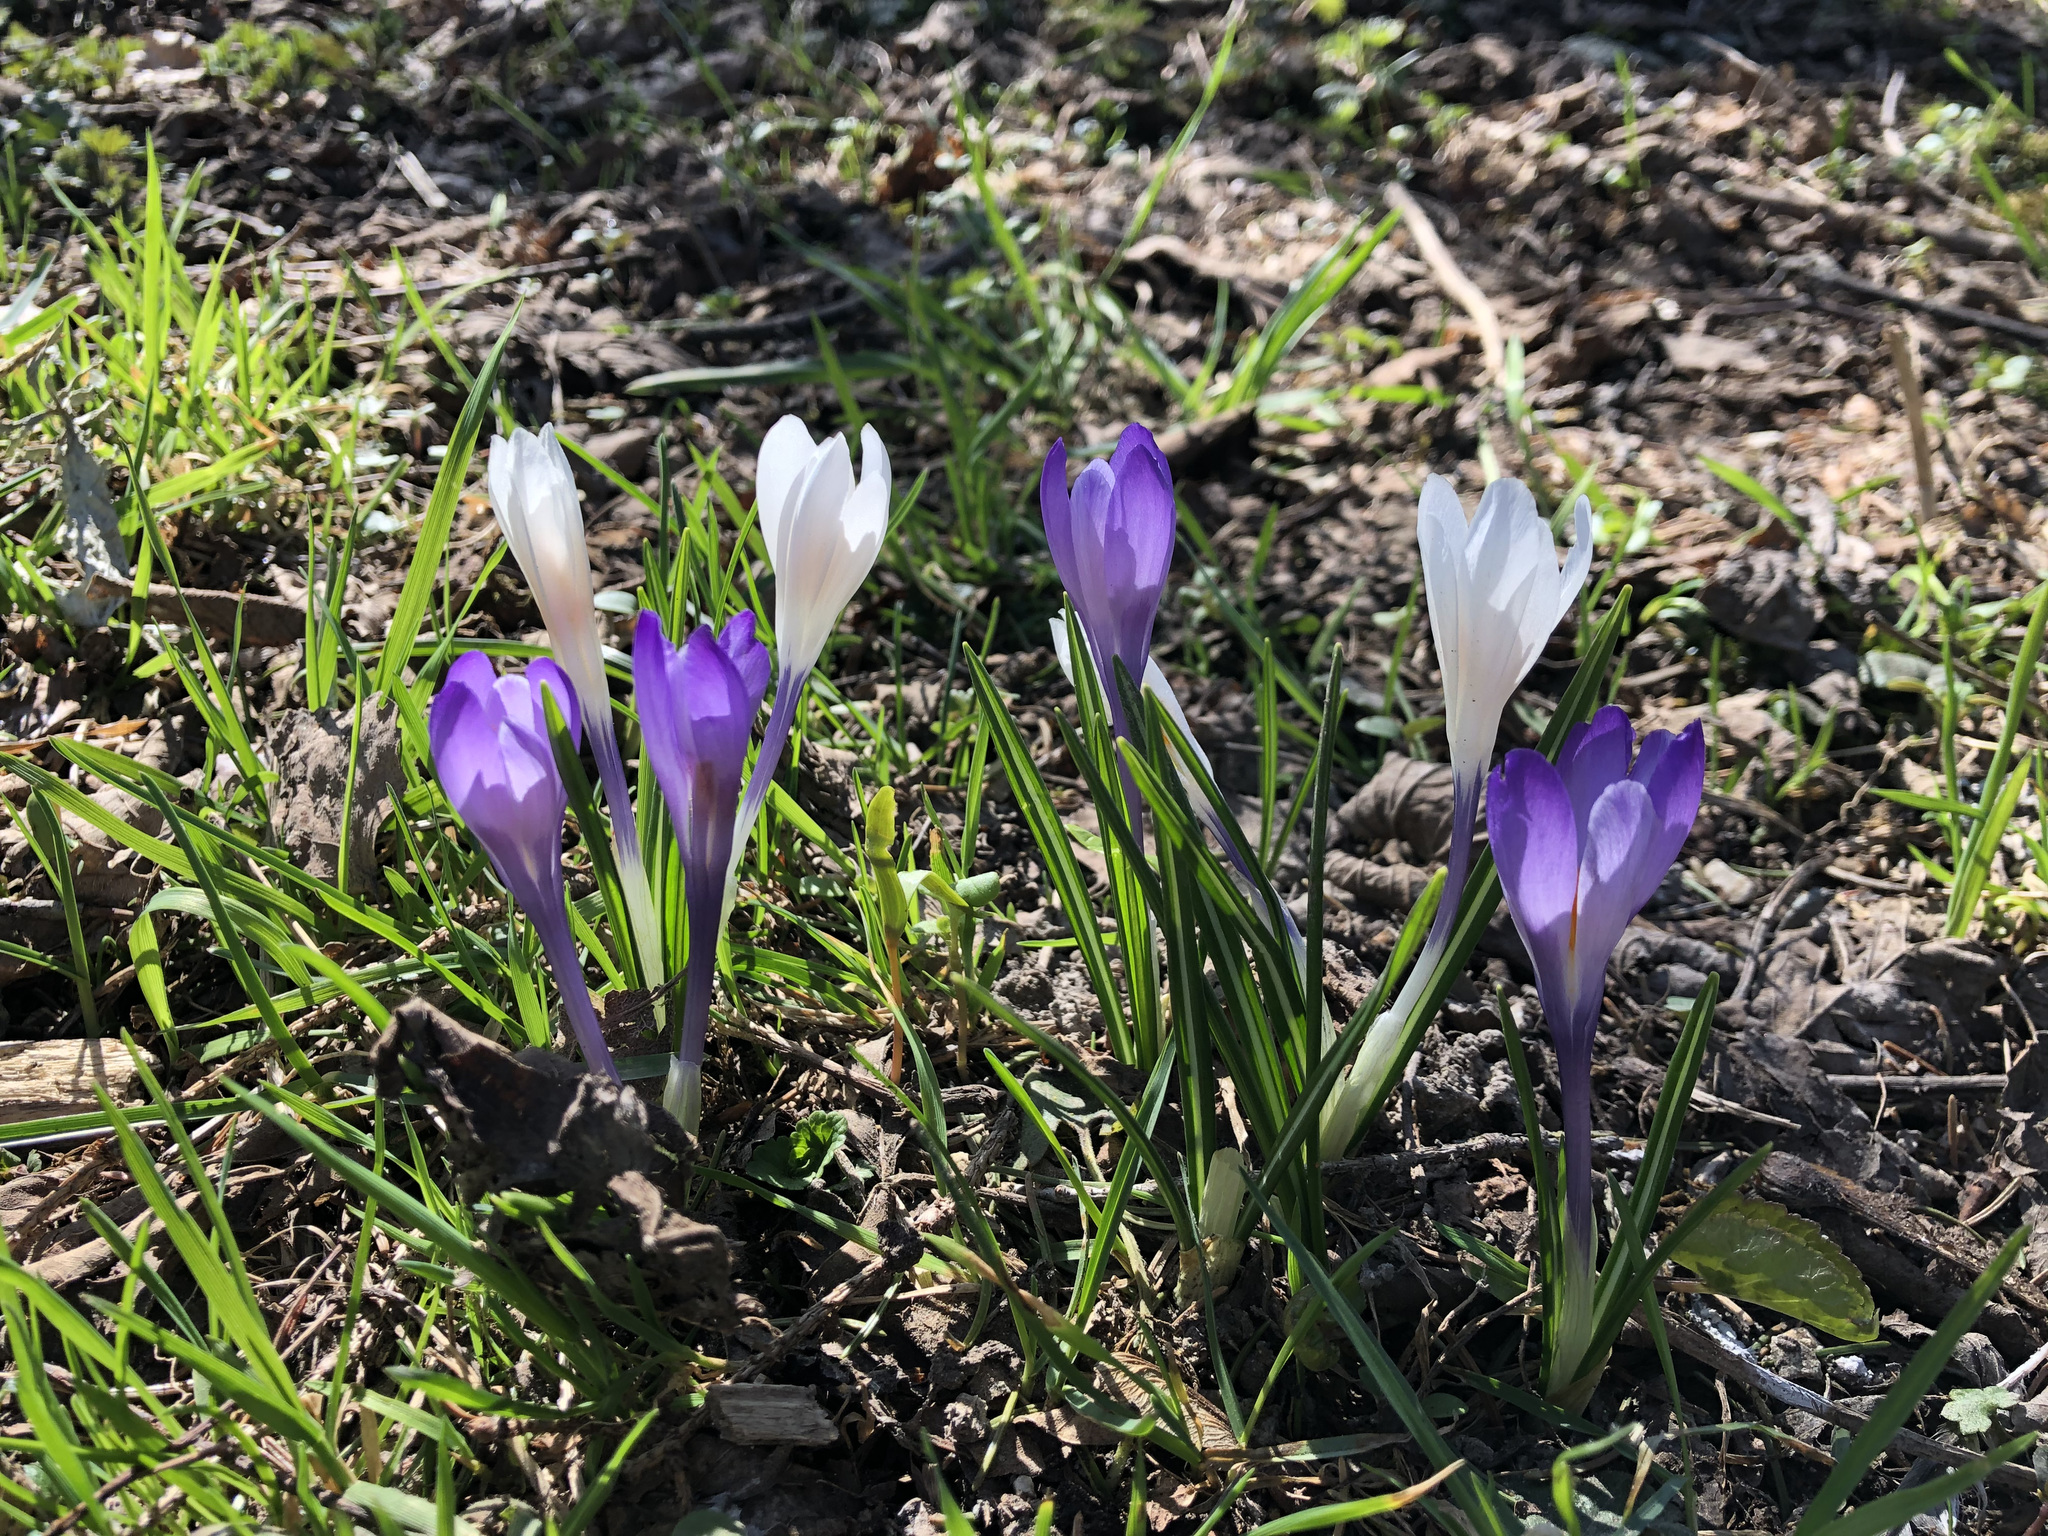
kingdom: Plantae
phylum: Tracheophyta
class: Liliopsida
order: Asparagales
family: Iridaceae
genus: Crocus
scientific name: Crocus vernus
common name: Spring crocus
